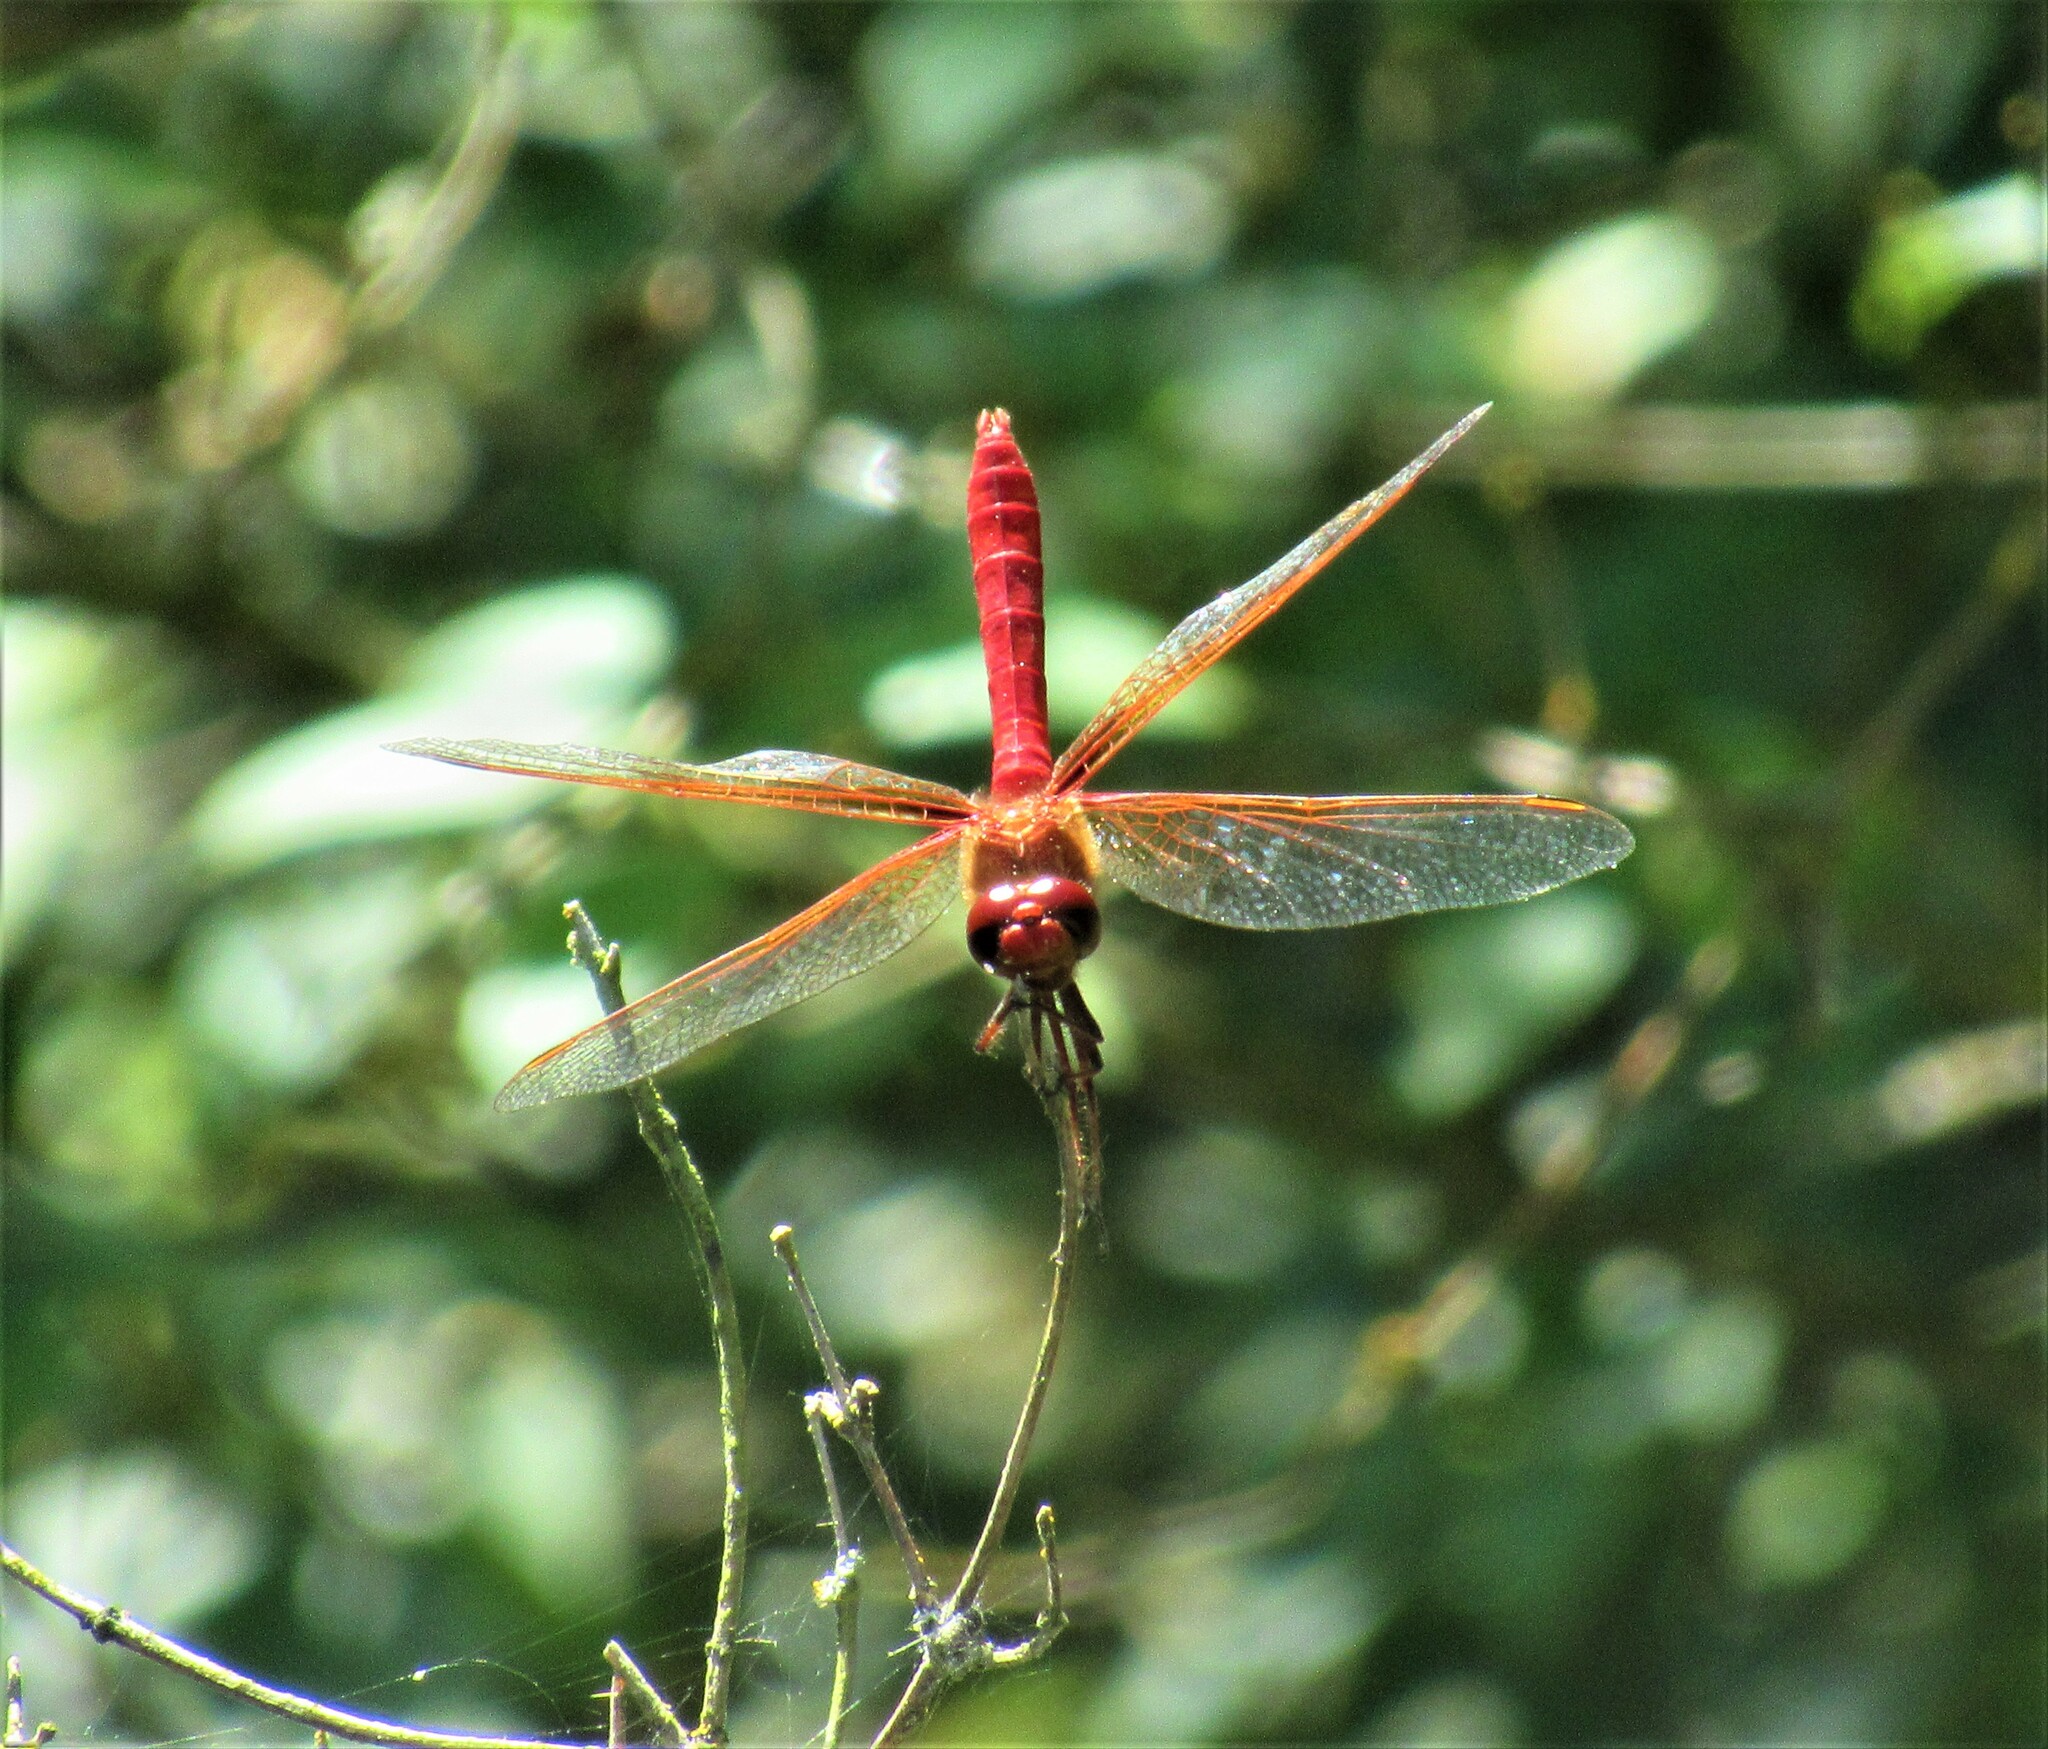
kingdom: Animalia
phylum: Arthropoda
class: Insecta
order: Odonata
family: Libellulidae
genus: Sympetrum
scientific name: Sympetrum illotum
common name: Cardinal meadowhawk
